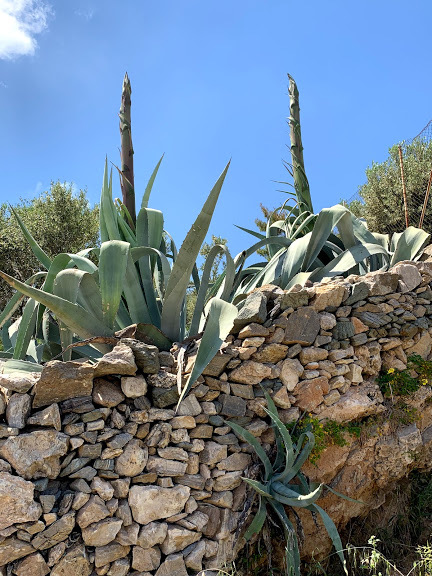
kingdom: Plantae
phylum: Tracheophyta
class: Liliopsida
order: Asparagales
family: Asparagaceae
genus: Agave
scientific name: Agave americana
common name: Centuryplant
